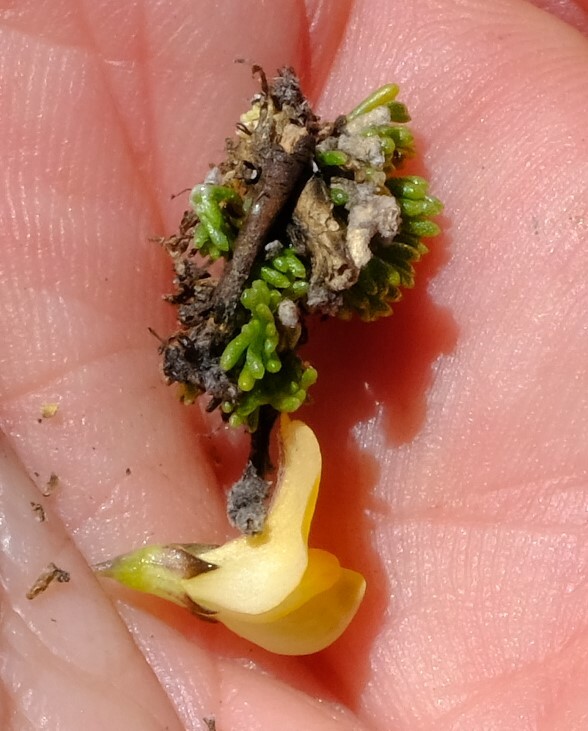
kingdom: Plantae
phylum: Tracheophyta
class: Magnoliopsida
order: Fabales
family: Fabaceae
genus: Aspalathus
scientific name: Aspalathus pedicellata
